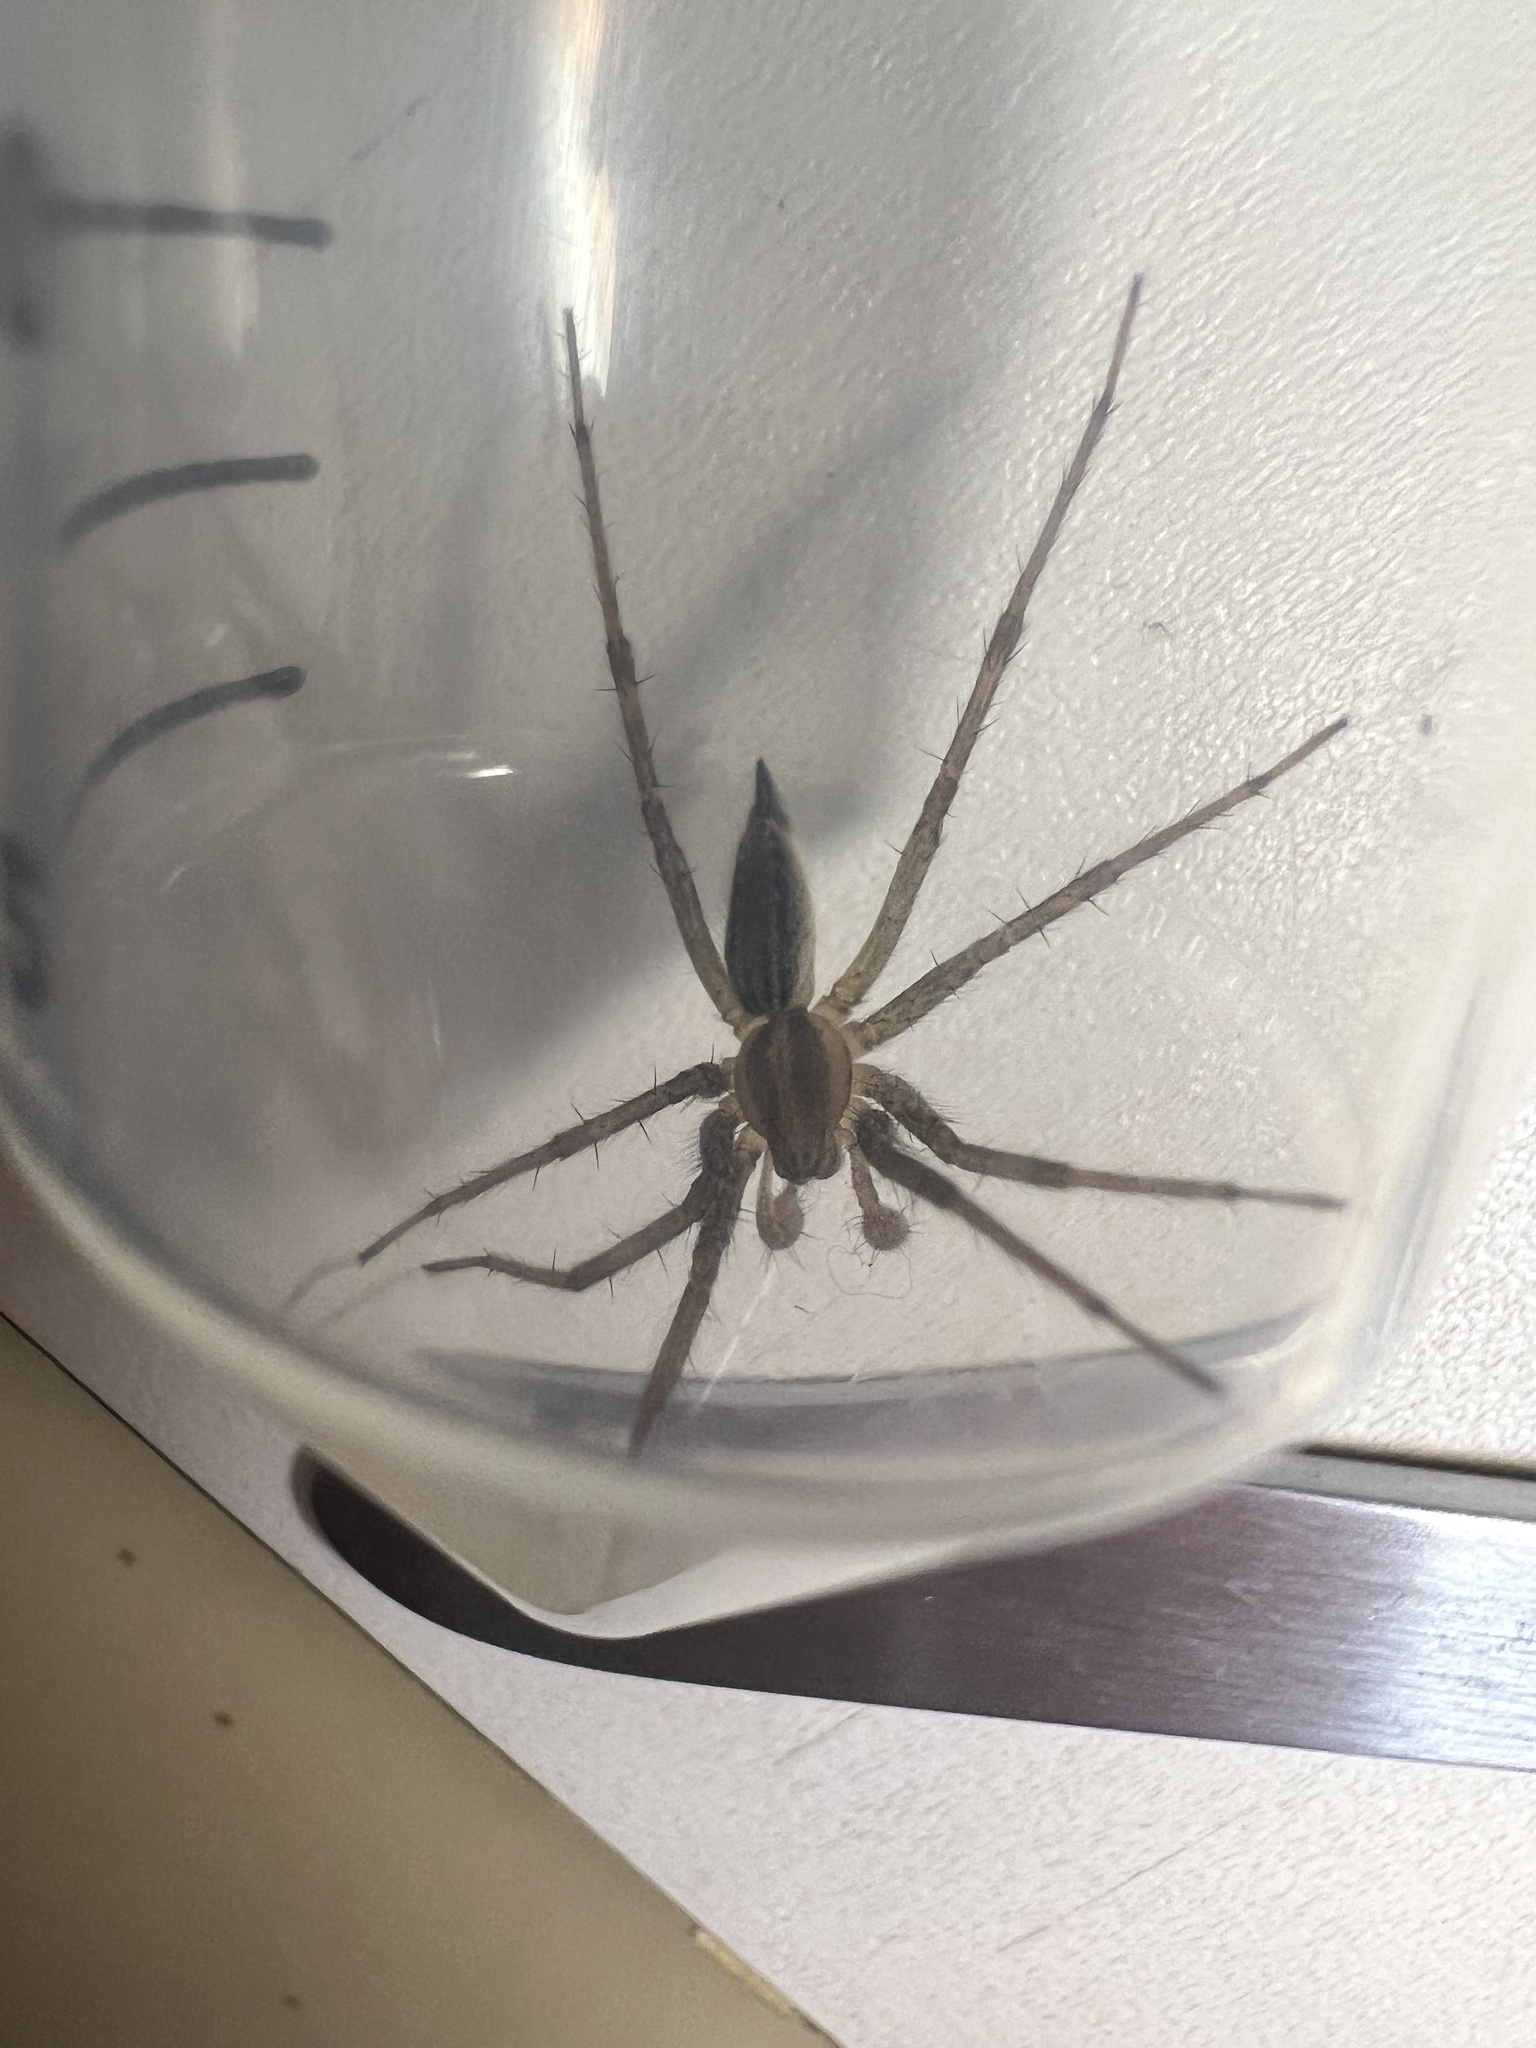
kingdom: Animalia
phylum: Arthropoda
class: Arachnida
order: Araneae
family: Agelenidae
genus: Agelenopsis
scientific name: Agelenopsis
